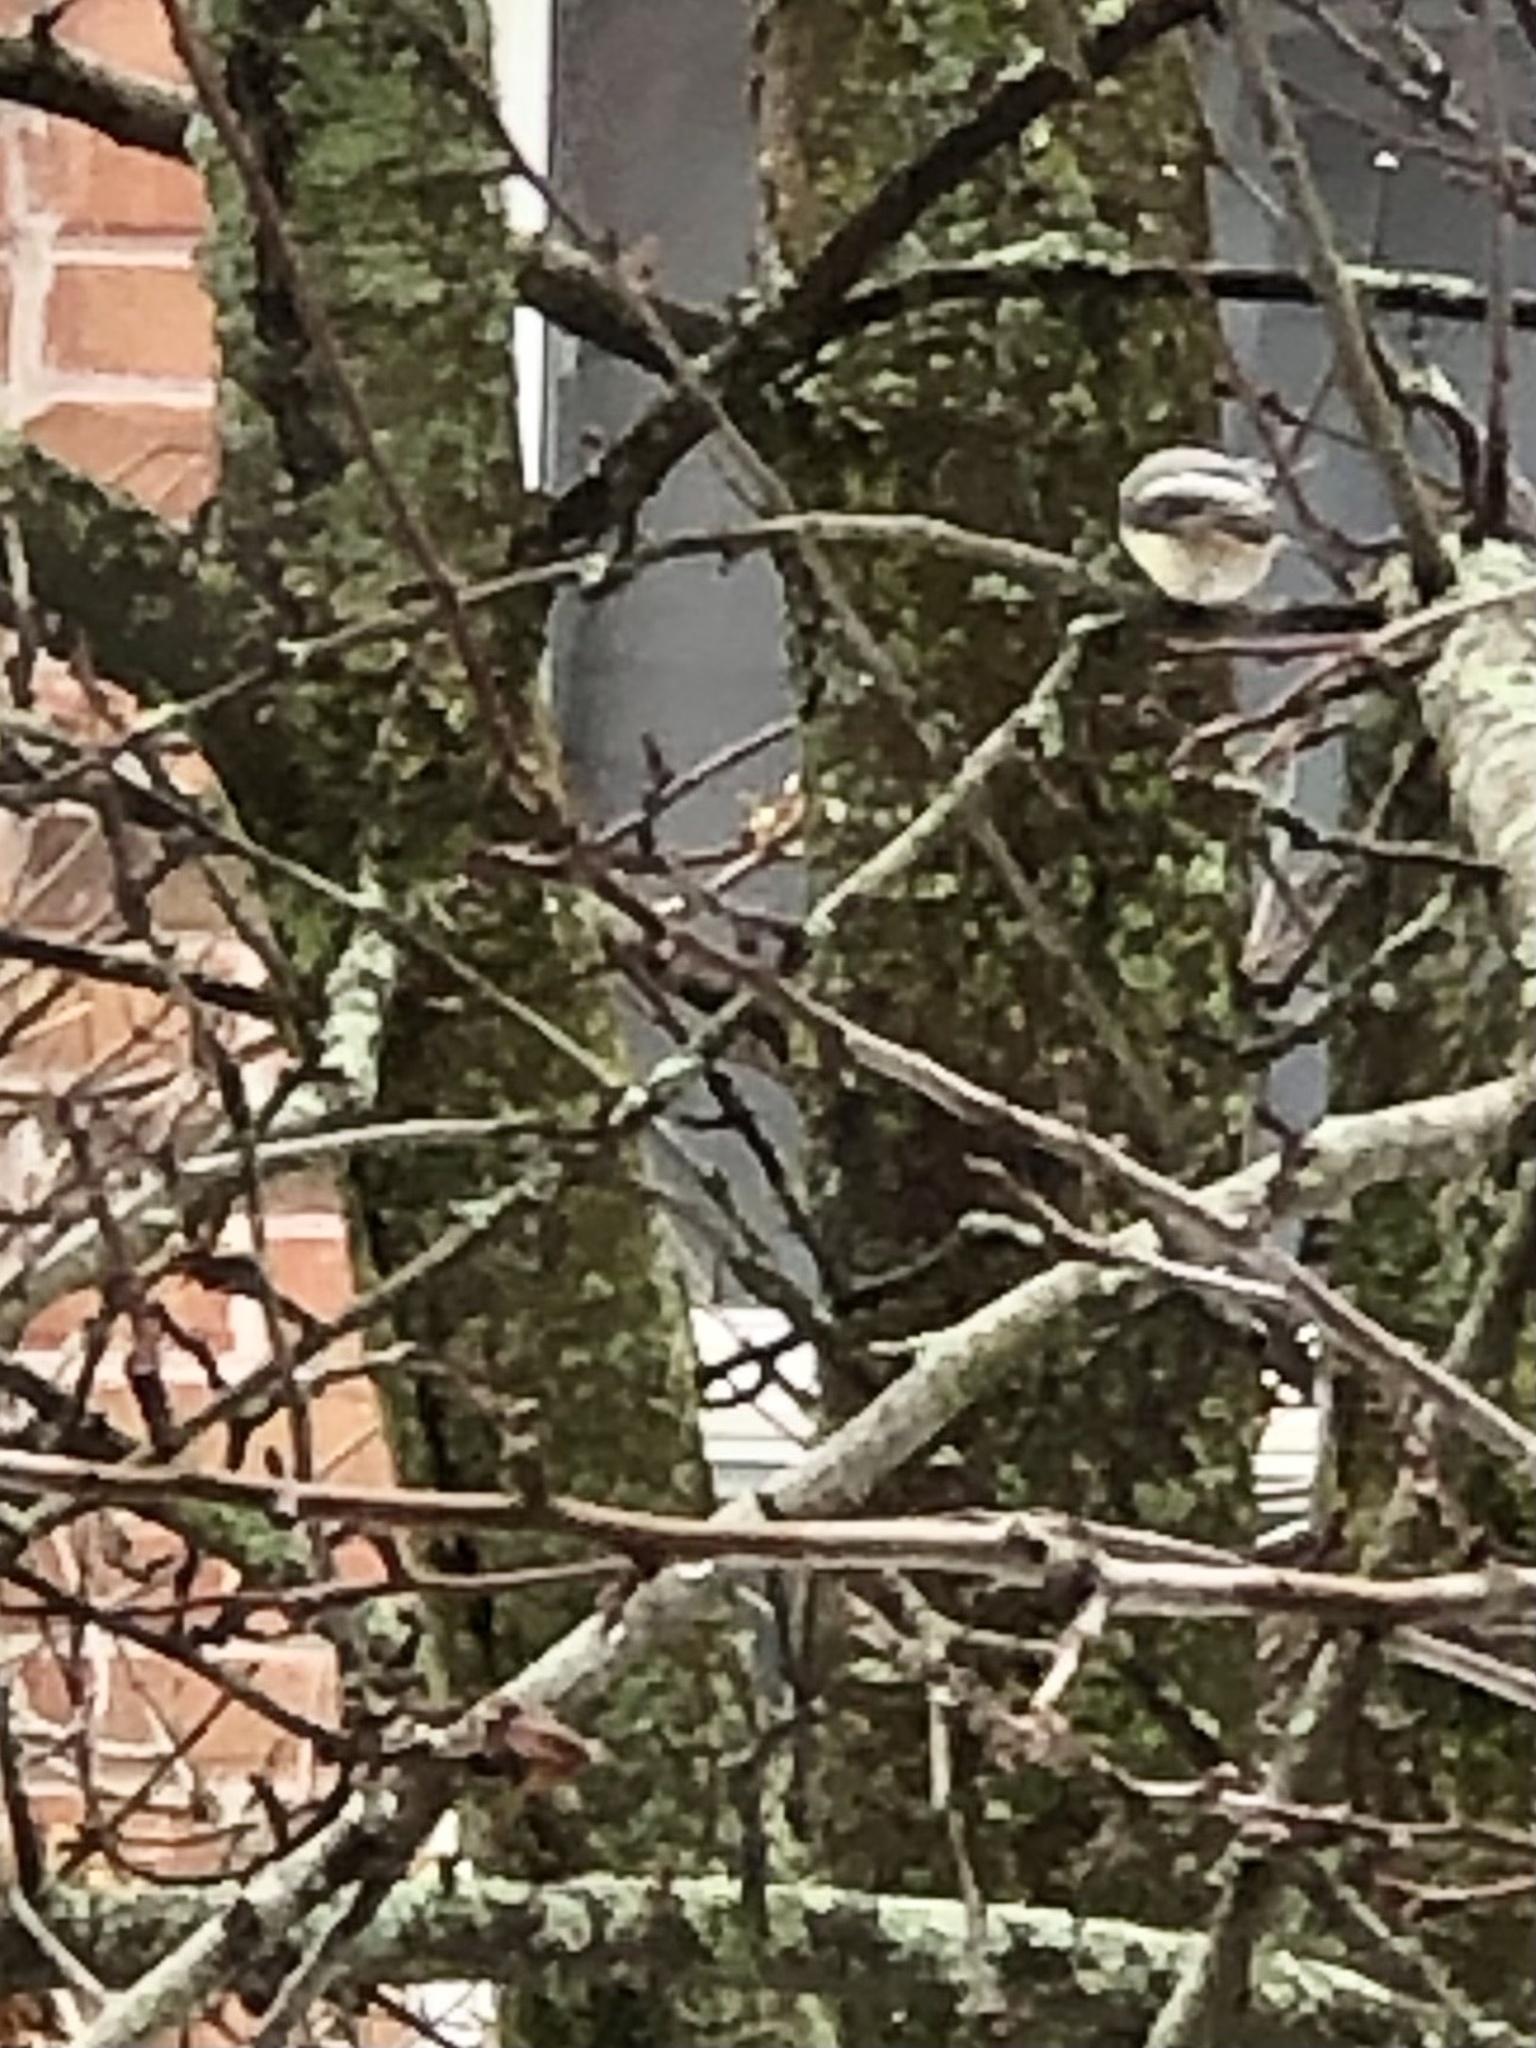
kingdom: Animalia
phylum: Chordata
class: Aves
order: Passeriformes
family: Paridae
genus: Poecile
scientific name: Poecile atricapillus
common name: Black-capped chickadee
